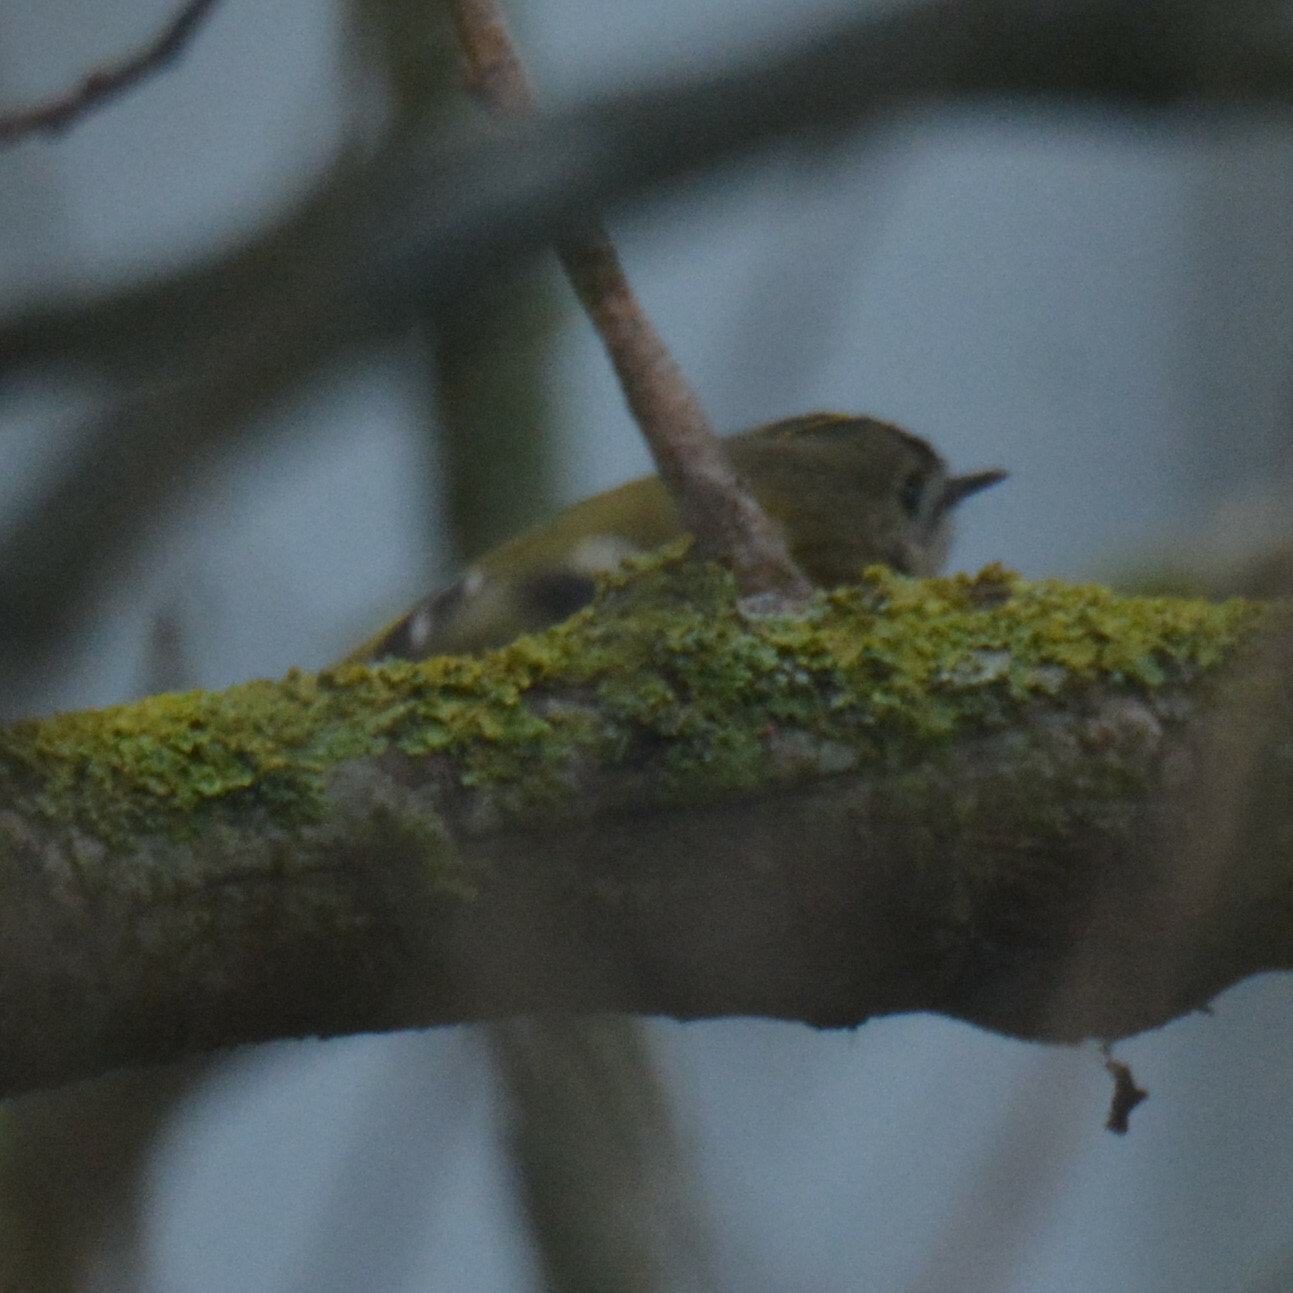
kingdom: Animalia
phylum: Chordata
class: Aves
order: Passeriformes
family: Regulidae
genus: Regulus
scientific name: Regulus regulus
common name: Goldcrest
